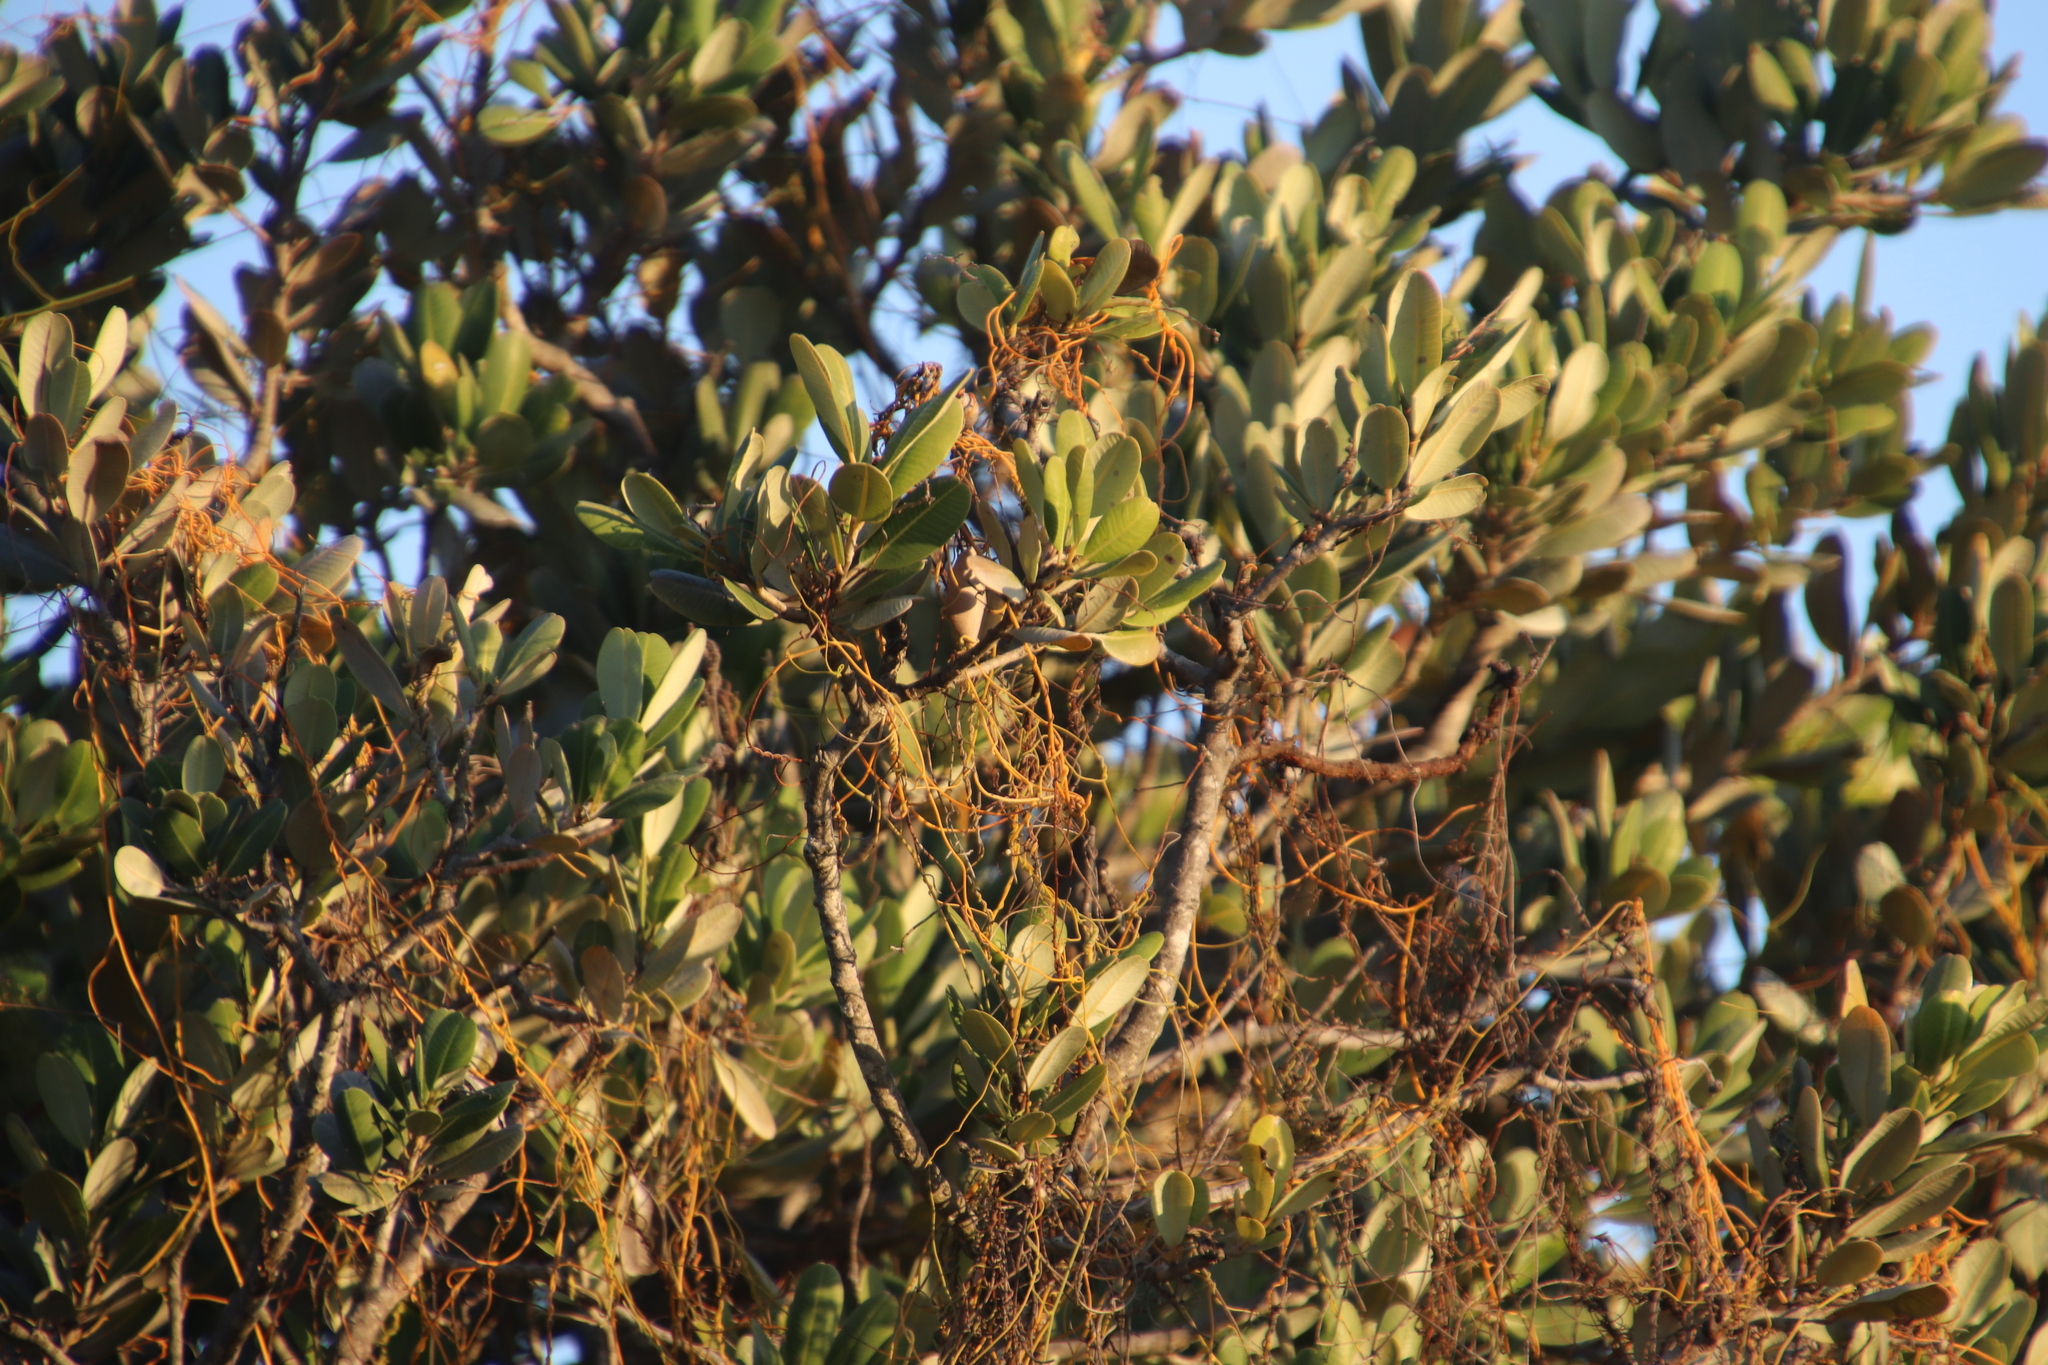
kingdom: Plantae
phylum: Tracheophyta
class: Magnoliopsida
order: Laurales
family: Lauraceae
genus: Cassytha
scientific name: Cassytha ciliolata
